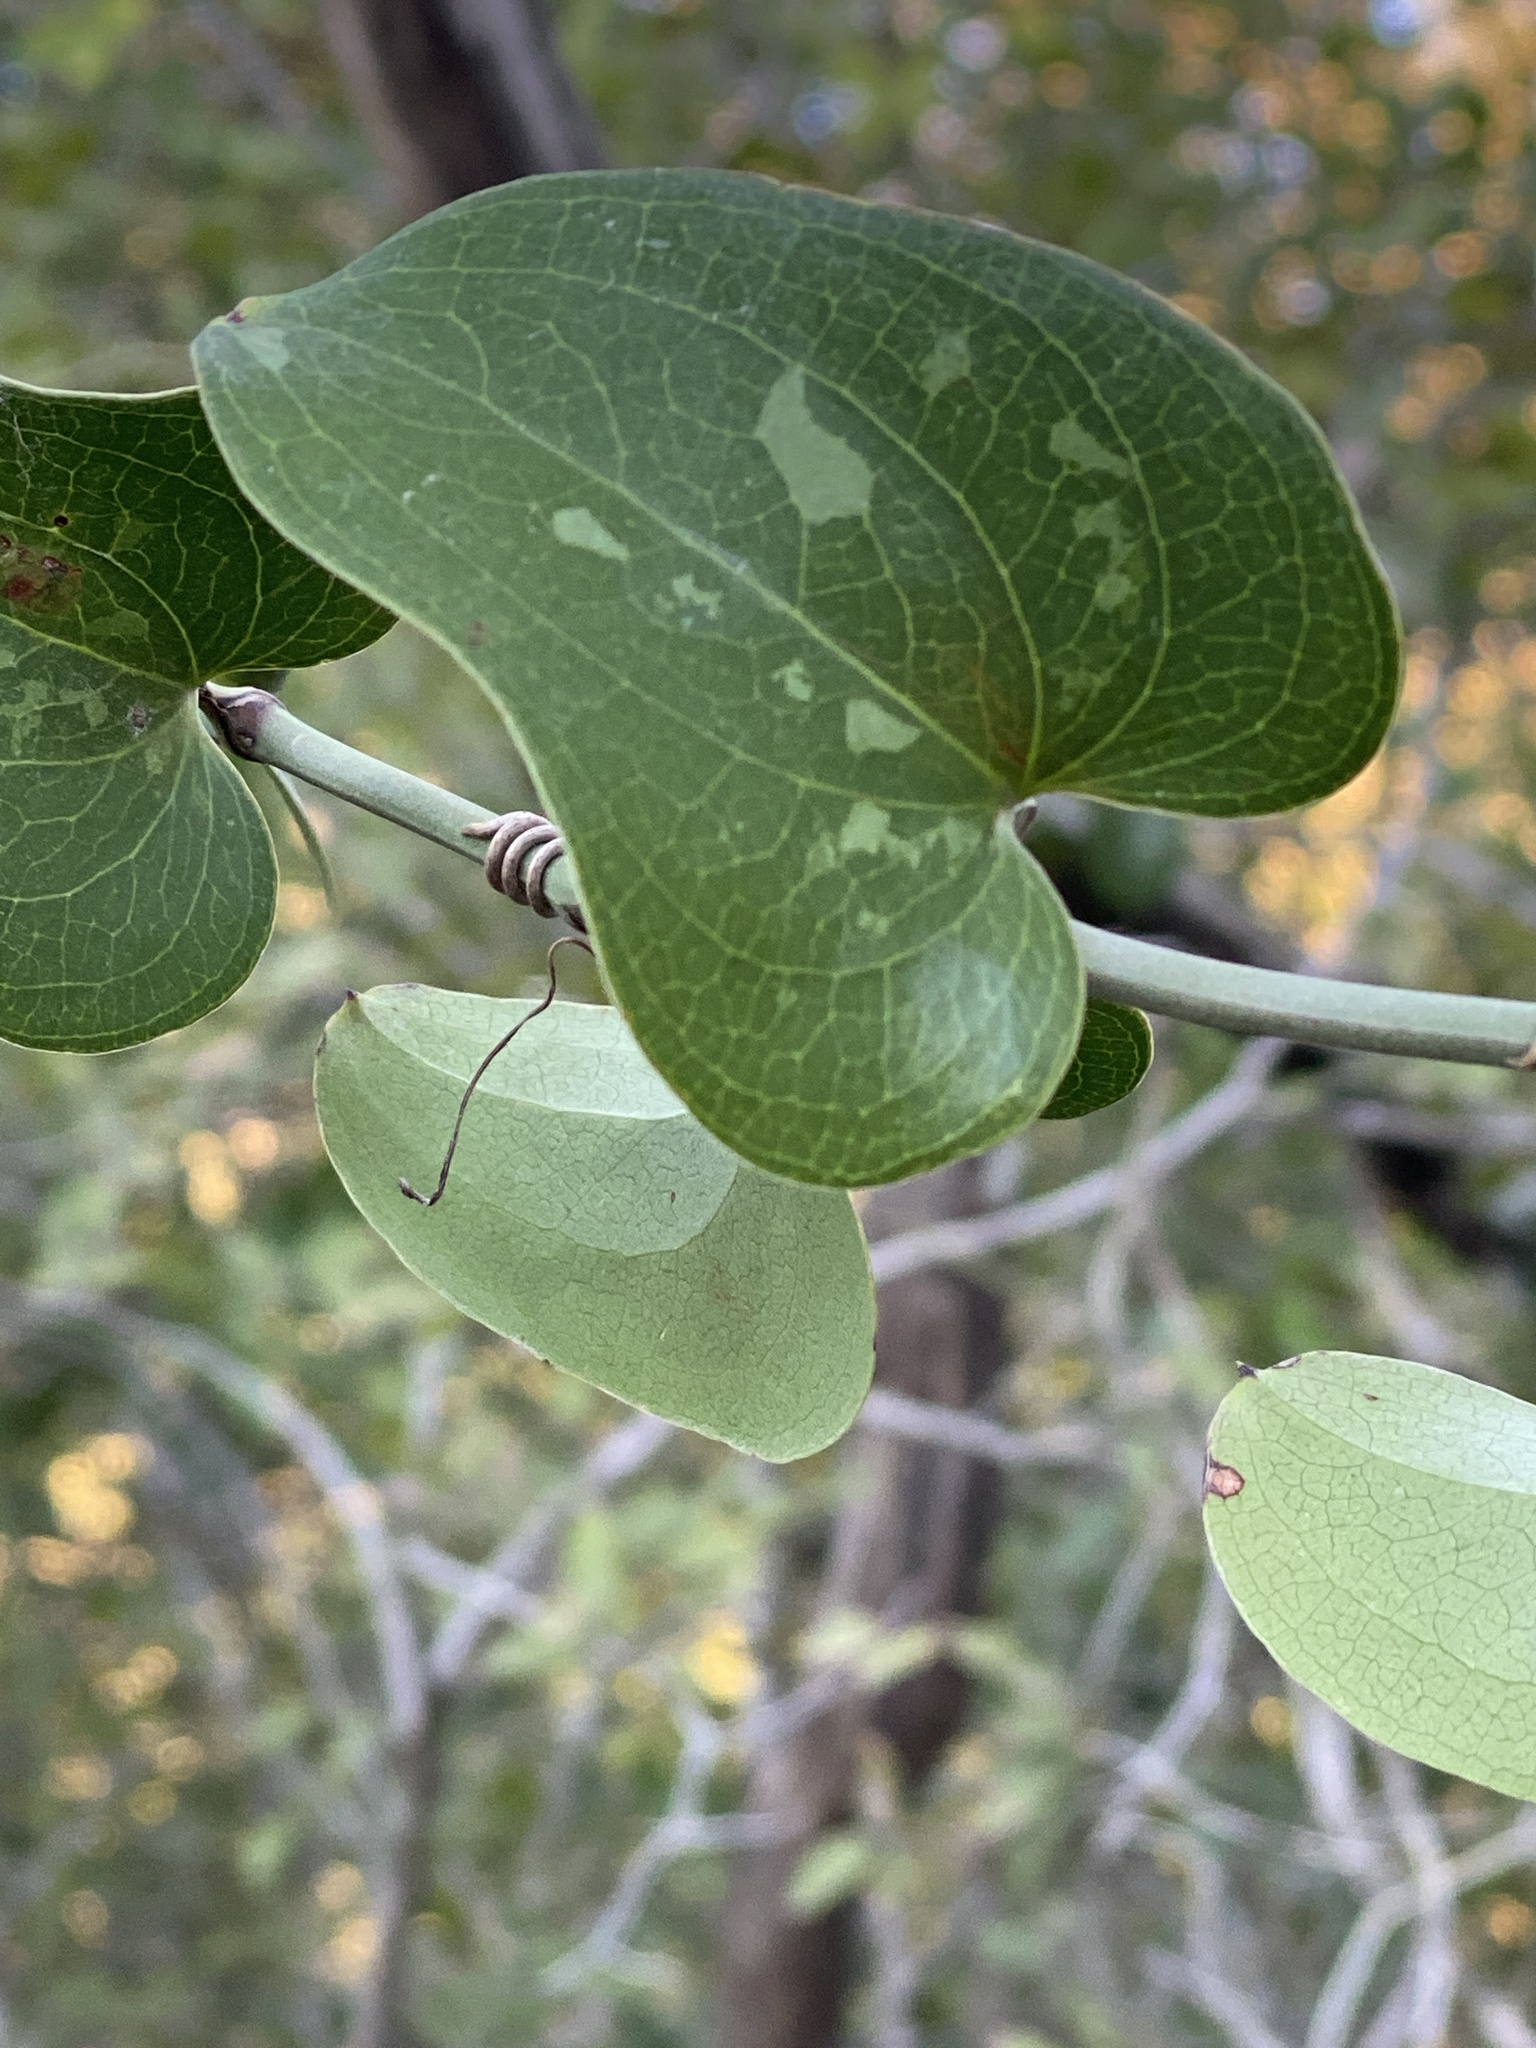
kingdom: Plantae
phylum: Tracheophyta
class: Liliopsida
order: Liliales
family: Smilacaceae
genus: Smilax
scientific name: Smilax bona-nox
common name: Catbrier
